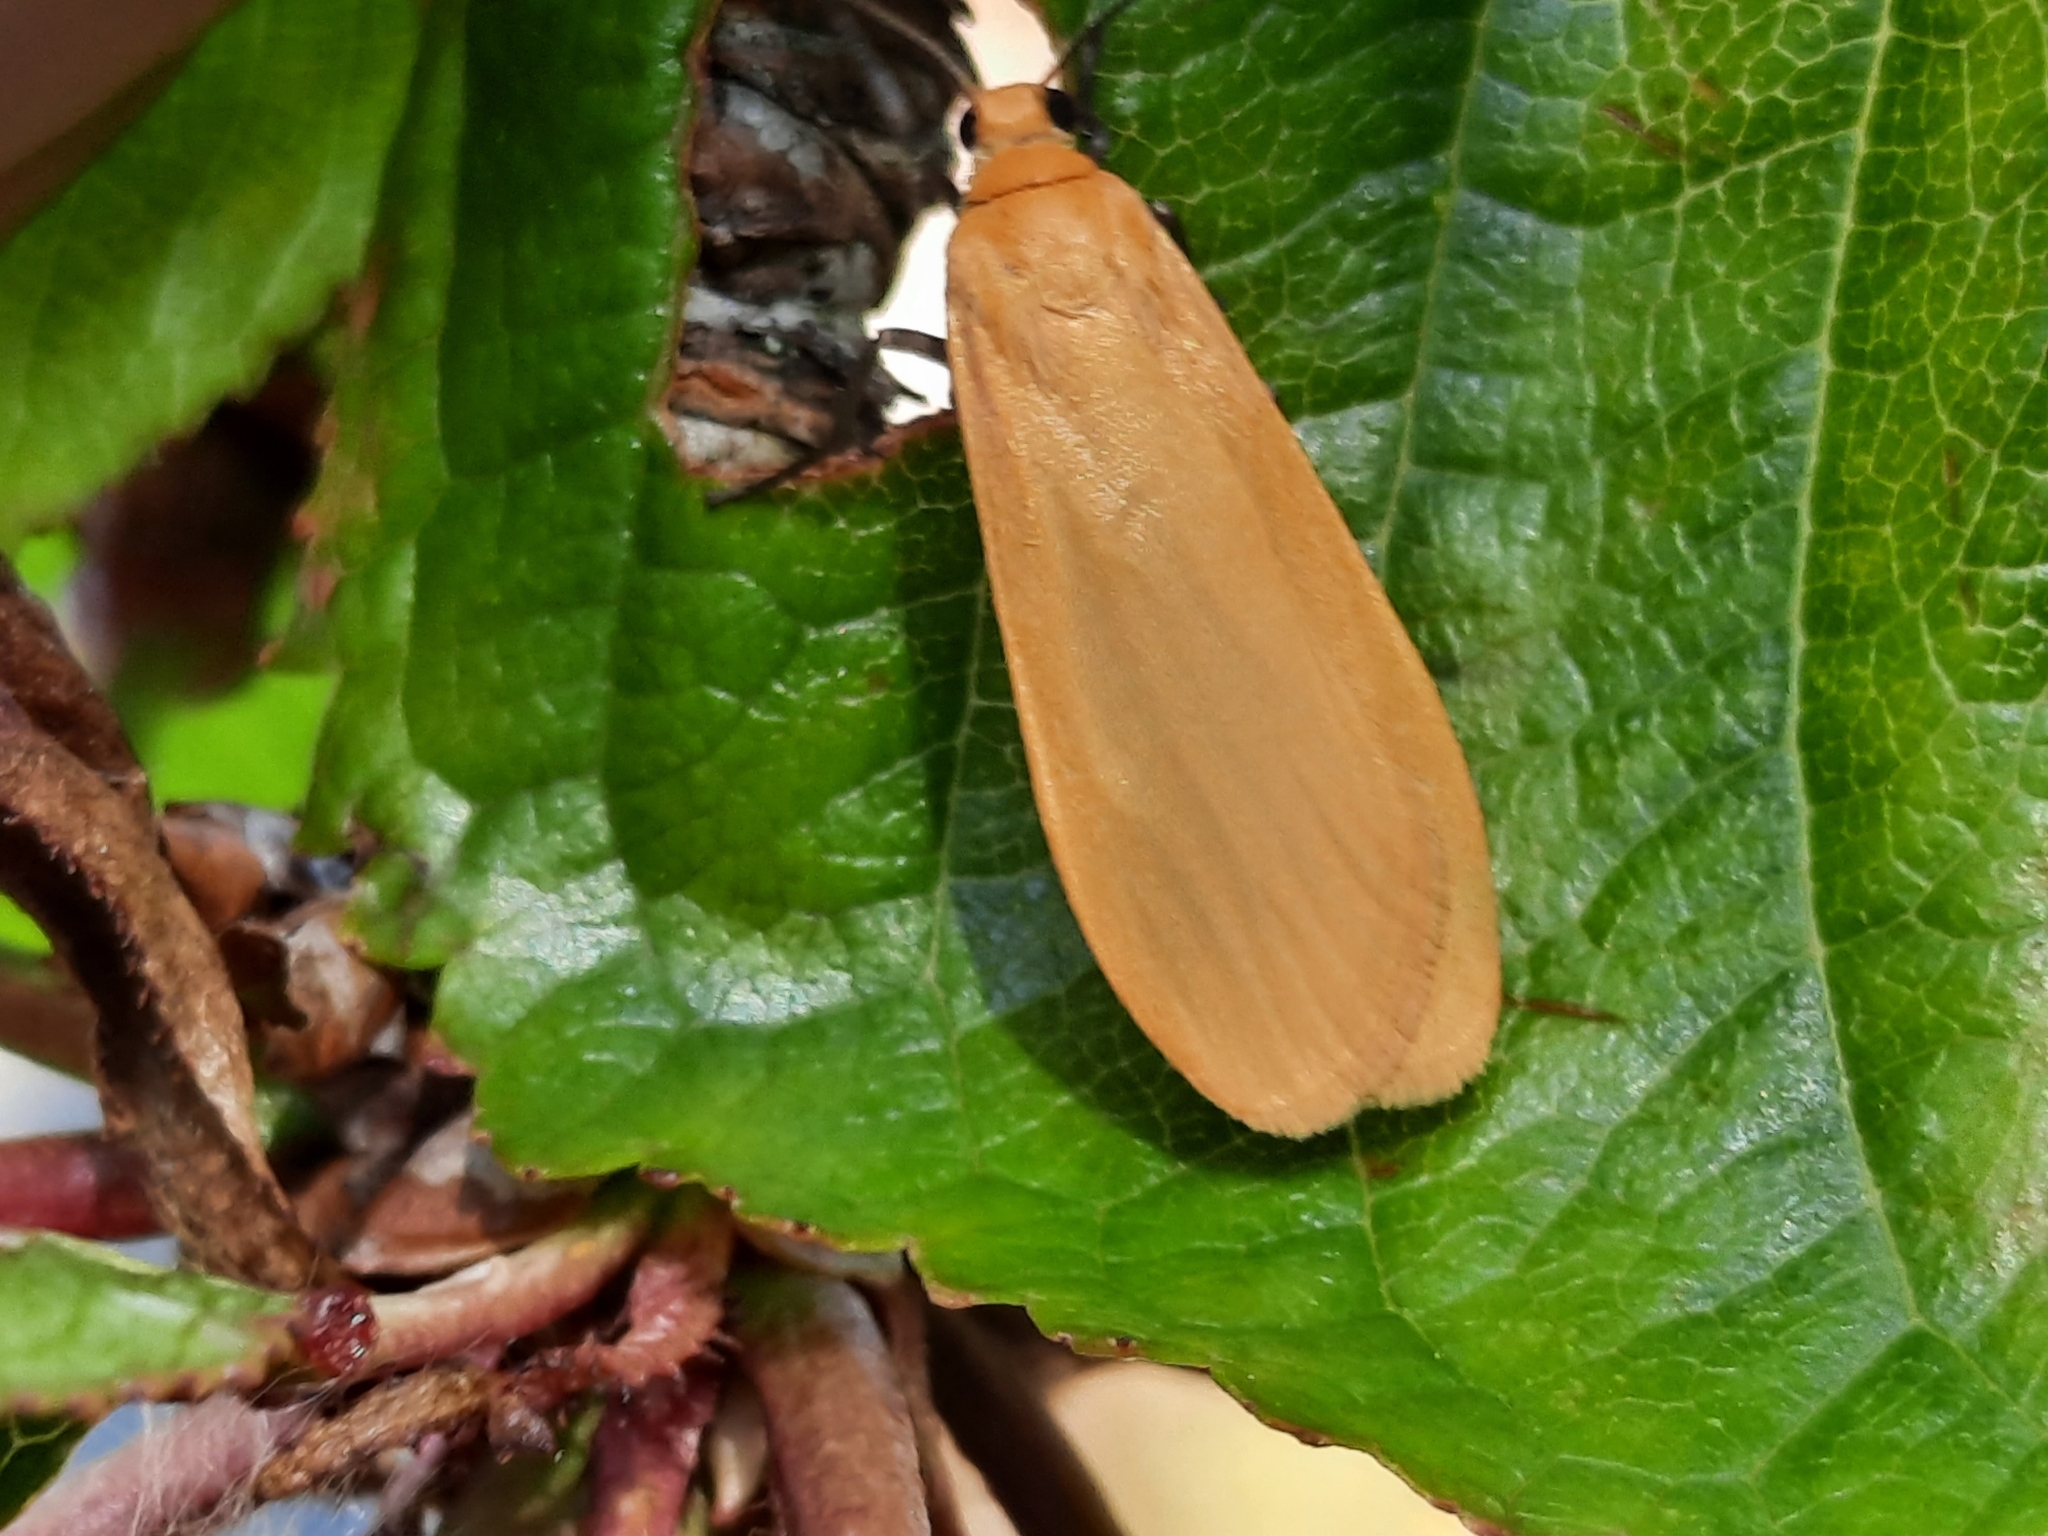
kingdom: Animalia
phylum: Arthropoda
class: Insecta
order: Lepidoptera
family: Erebidae
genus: Wittia
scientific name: Wittia sororcula
